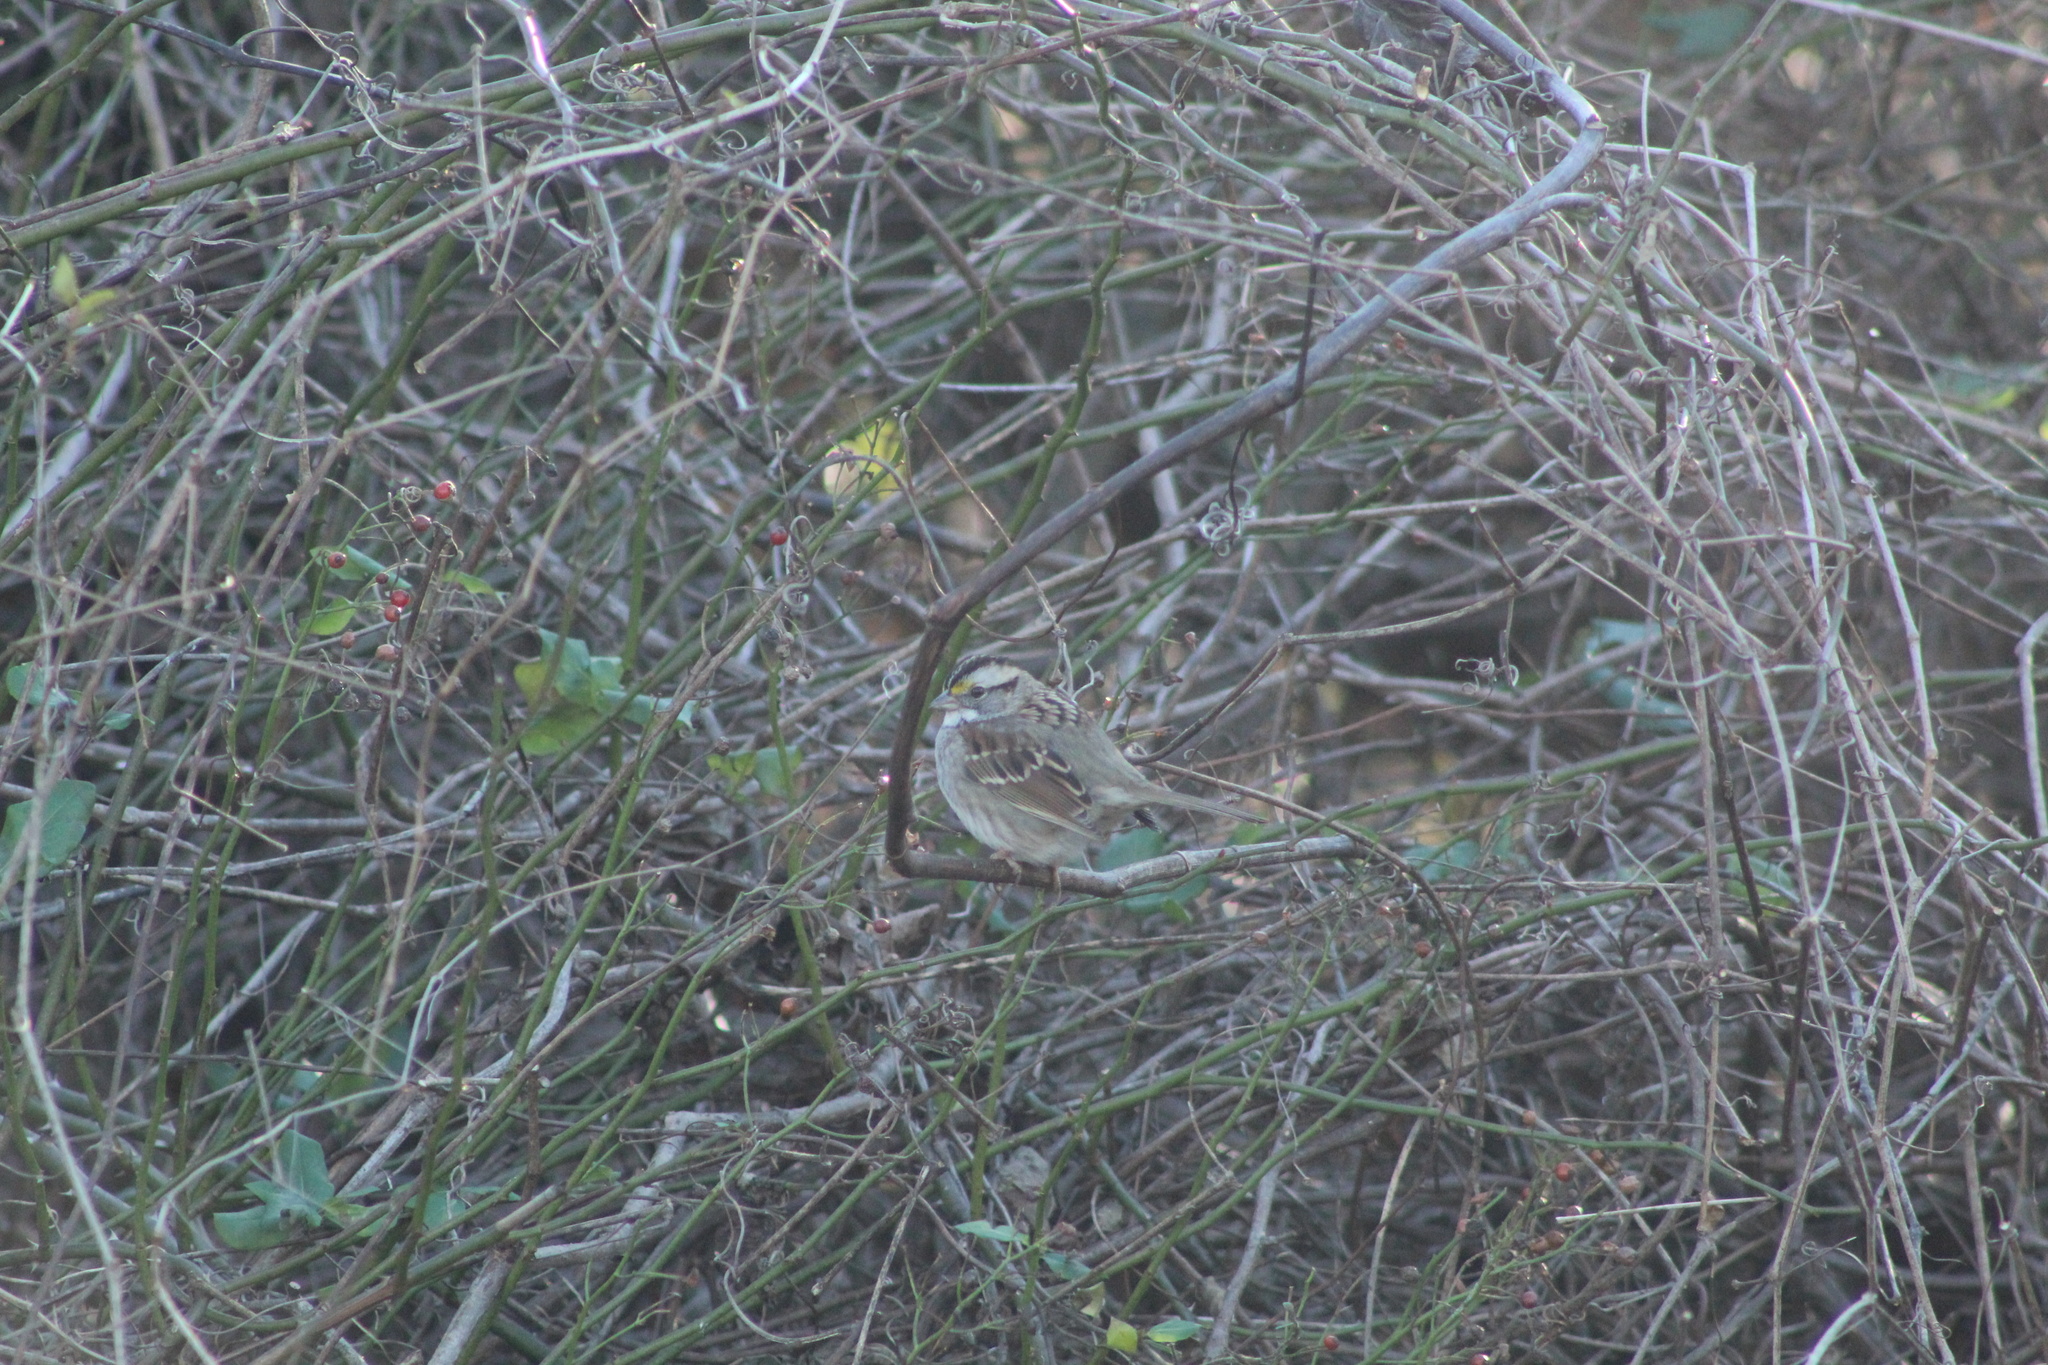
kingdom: Animalia
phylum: Chordata
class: Aves
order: Passeriformes
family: Passerellidae
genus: Zonotrichia
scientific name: Zonotrichia albicollis
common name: White-throated sparrow
